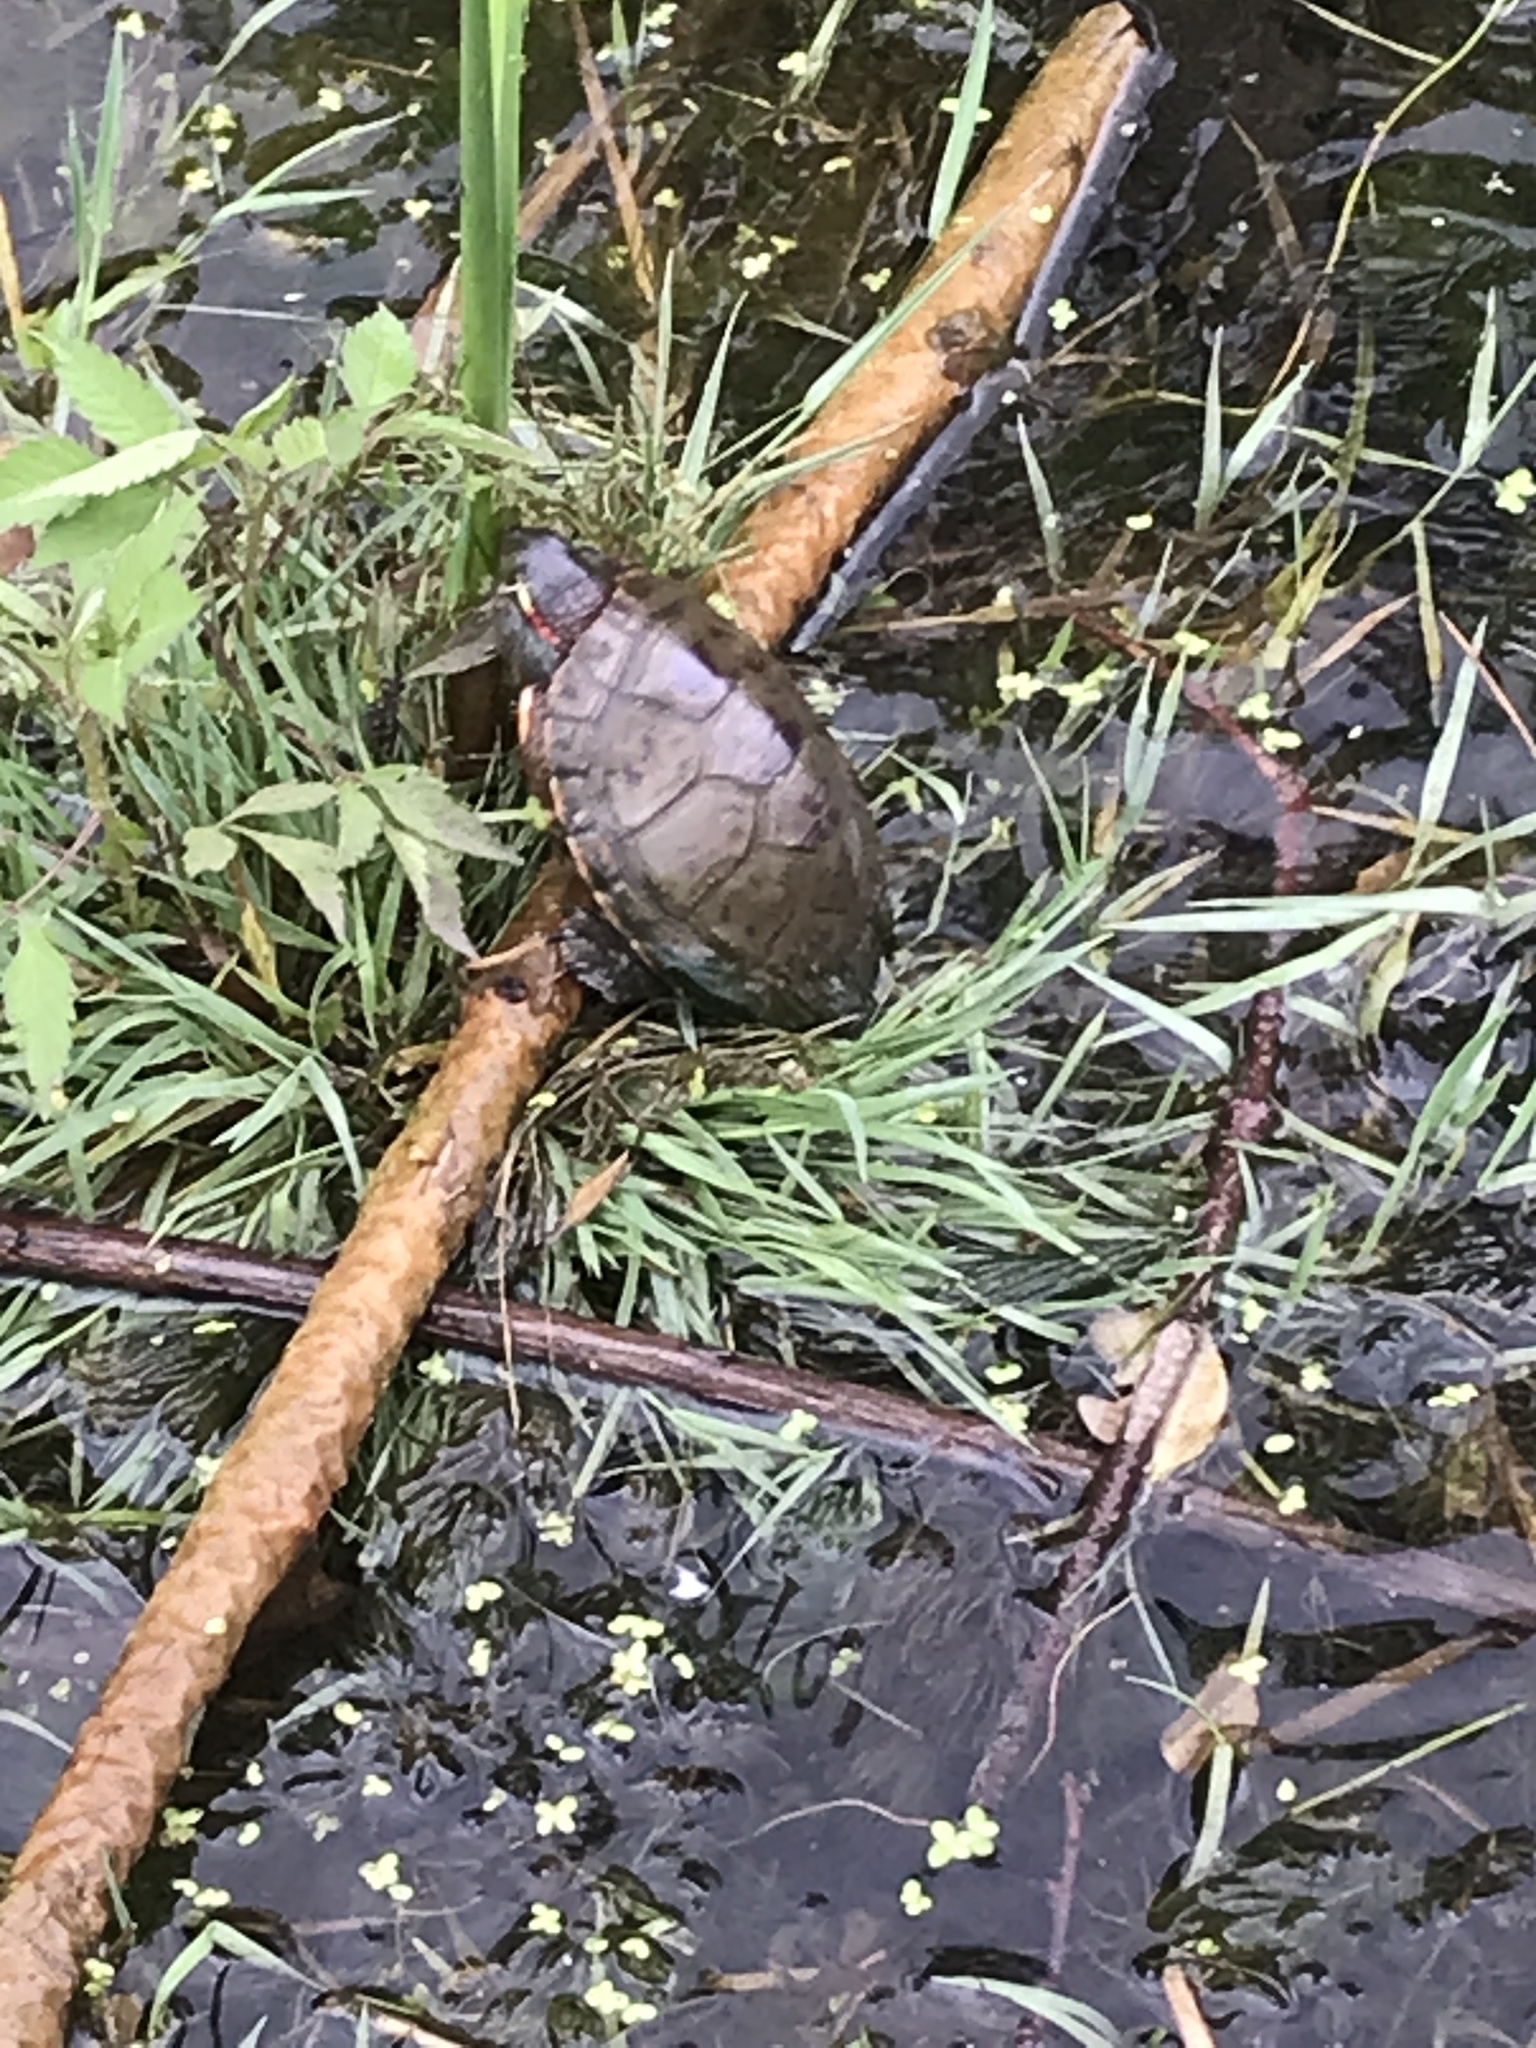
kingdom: Animalia
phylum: Chordata
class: Testudines
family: Emydidae
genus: Chrysemys
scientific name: Chrysemys picta
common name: Painted turtle
